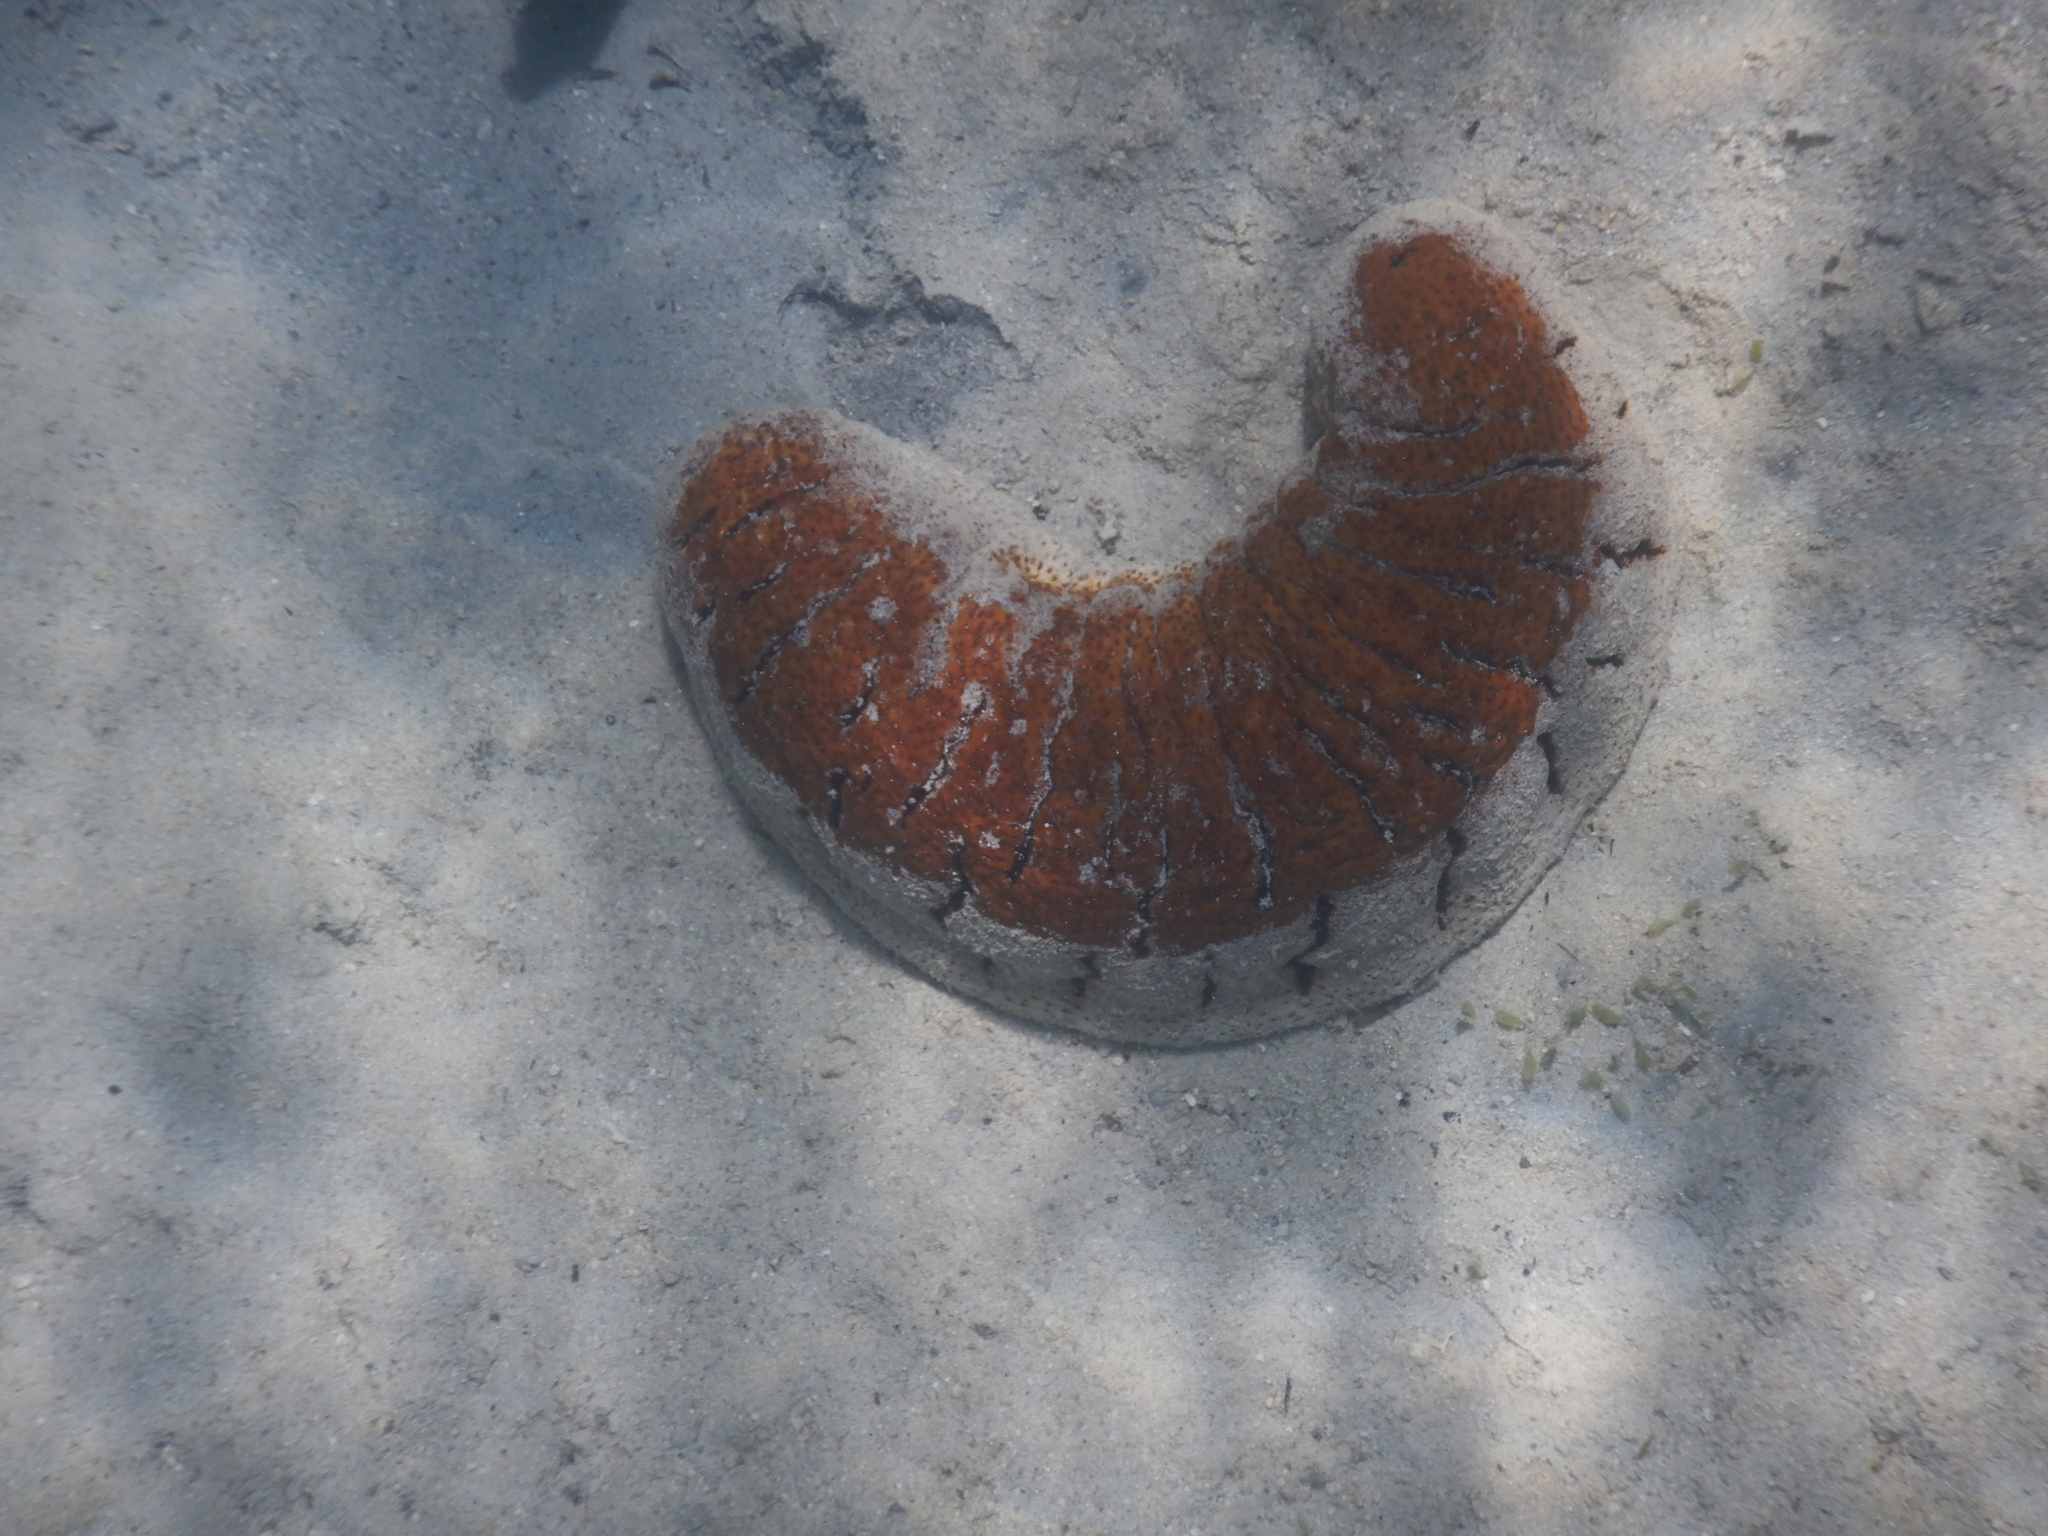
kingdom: Animalia
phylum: Echinodermata
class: Holothuroidea
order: Holothuriida
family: Holothuriidae
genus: Holothuria
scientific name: Holothuria fuscopunctata
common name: Elephant trunkfish
